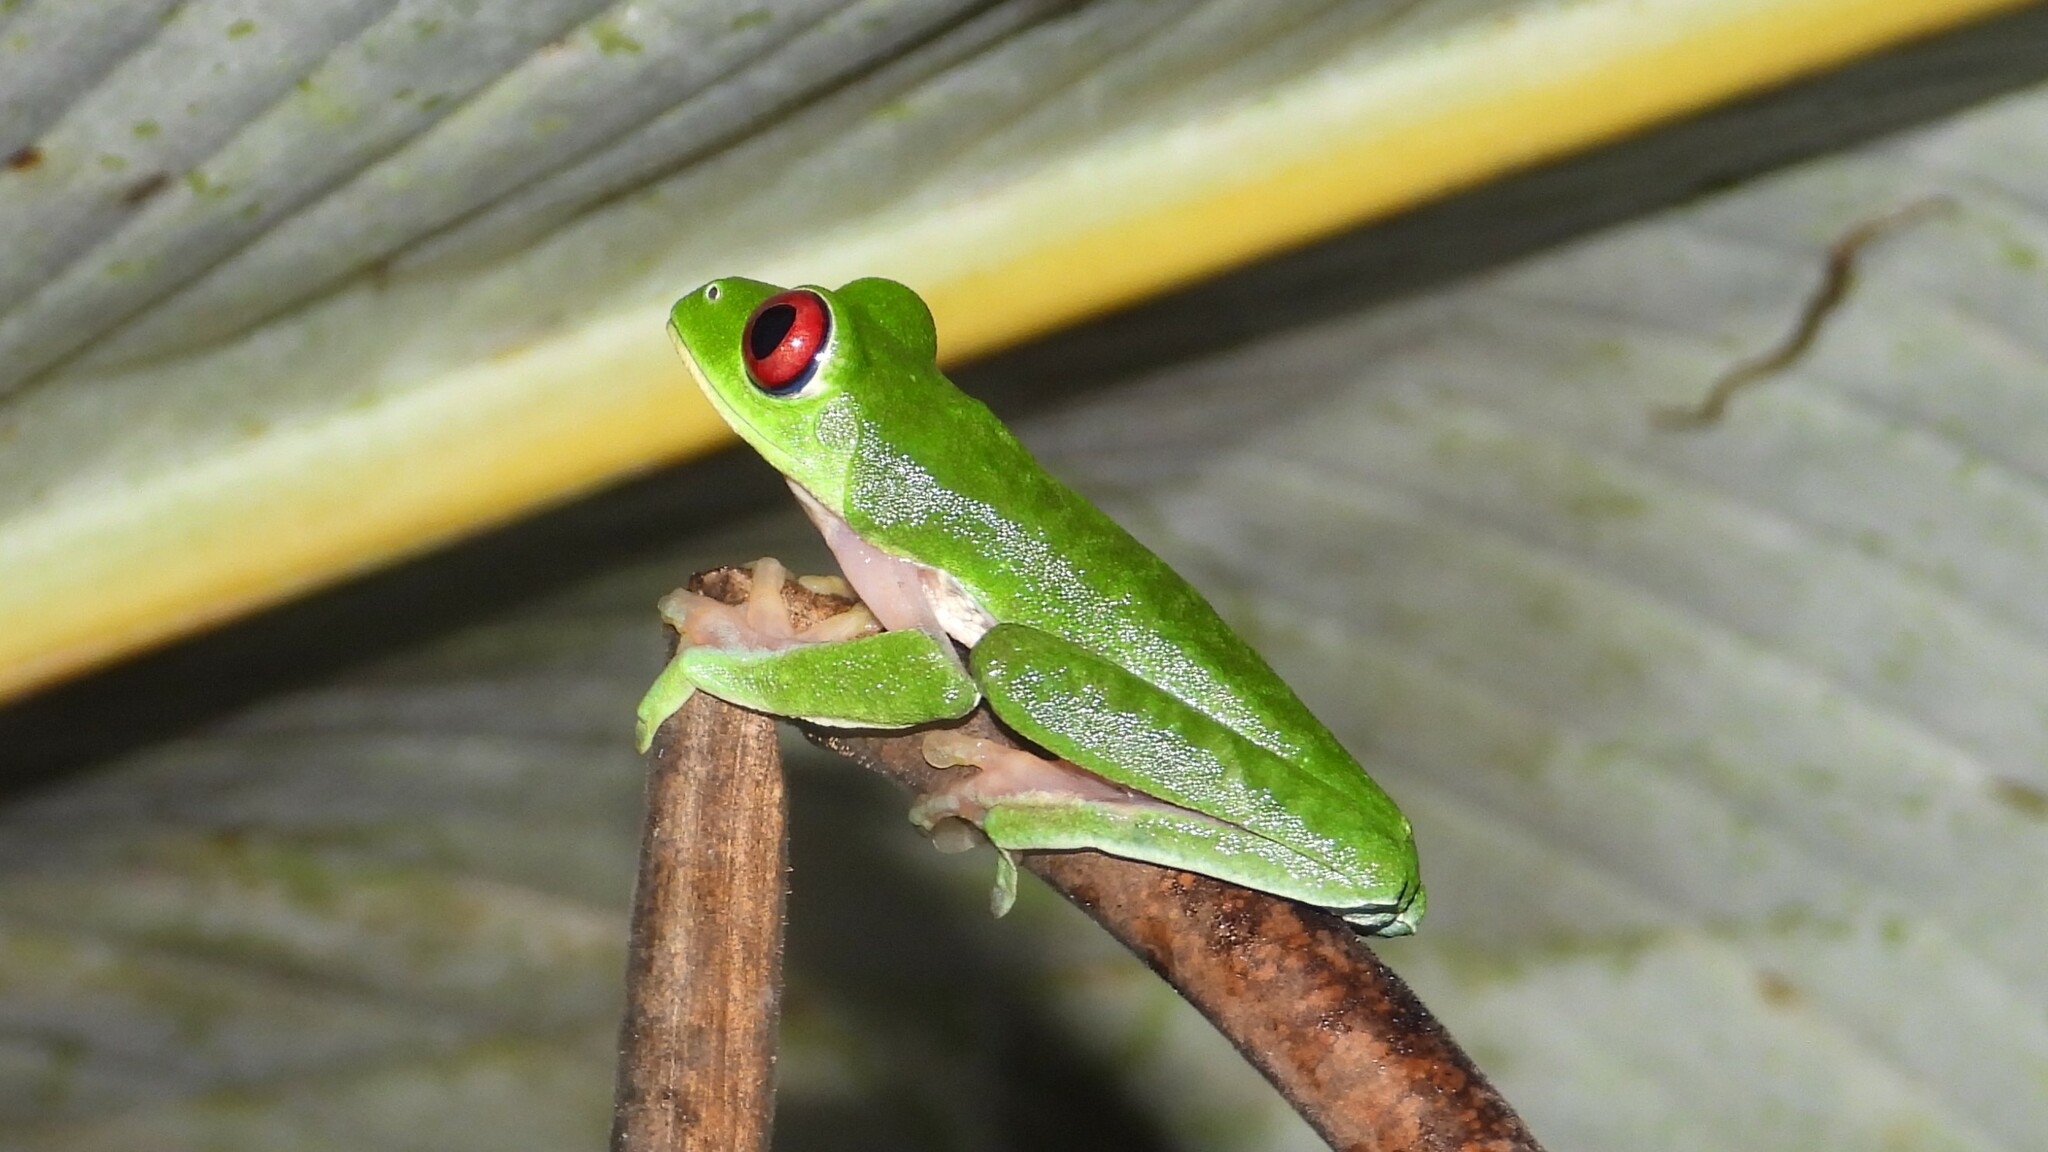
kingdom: Animalia
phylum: Chordata
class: Amphibia
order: Anura
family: Phyllomedusidae
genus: Agalychnis
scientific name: Agalychnis callidryas
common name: Red-eyed treefrog
